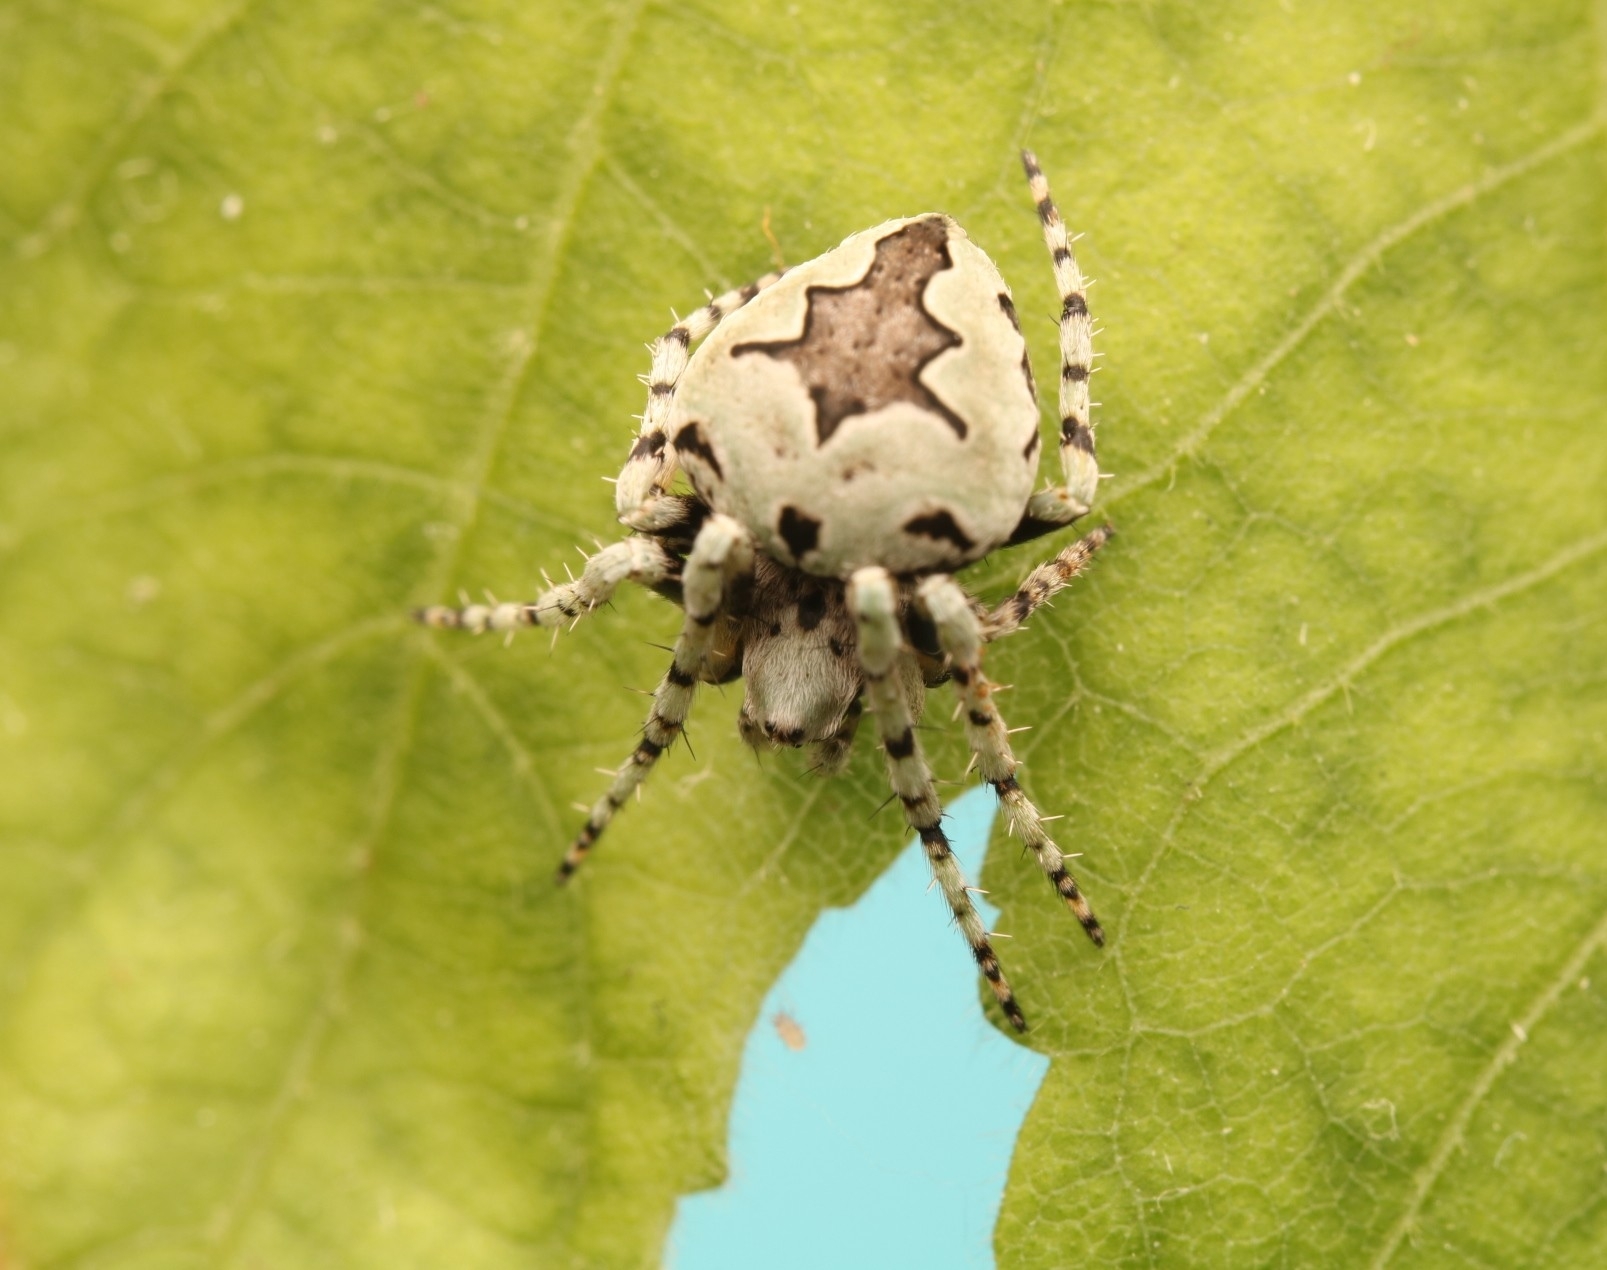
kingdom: Animalia
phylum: Arthropoda
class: Arachnida
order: Araneae
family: Araneidae
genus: Eustala
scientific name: Eustala anastera
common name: Orb weavers
